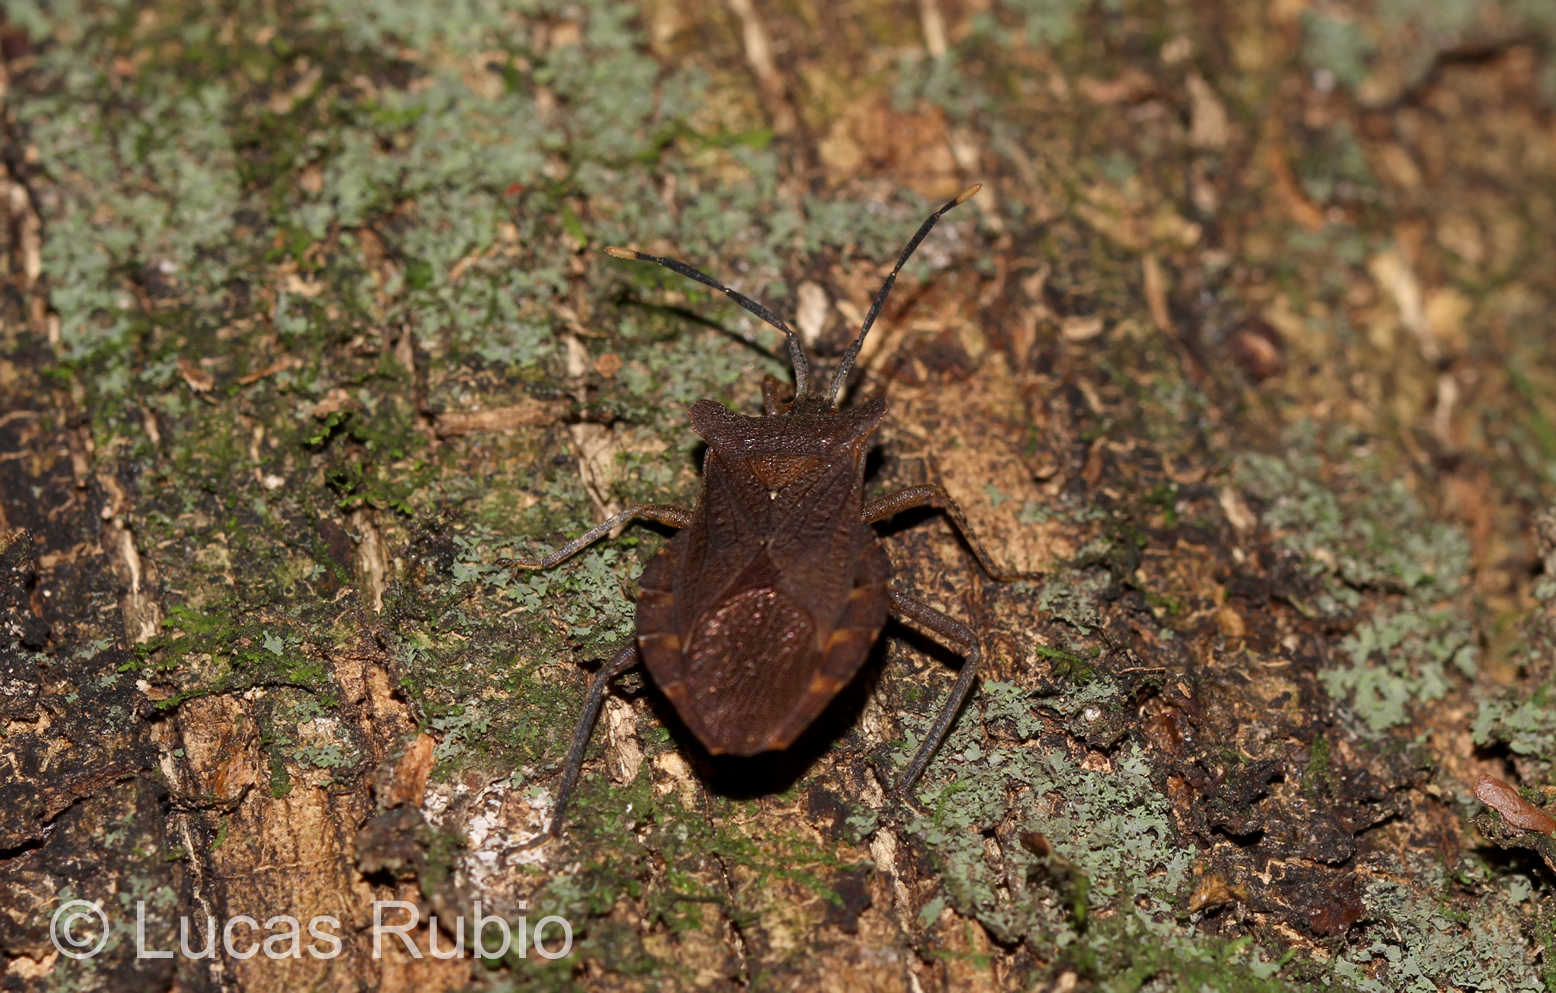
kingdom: Animalia
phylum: Arthropoda
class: Insecta
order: Hemiptera
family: Coreidae
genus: Sethenira
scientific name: Sethenira testacea
